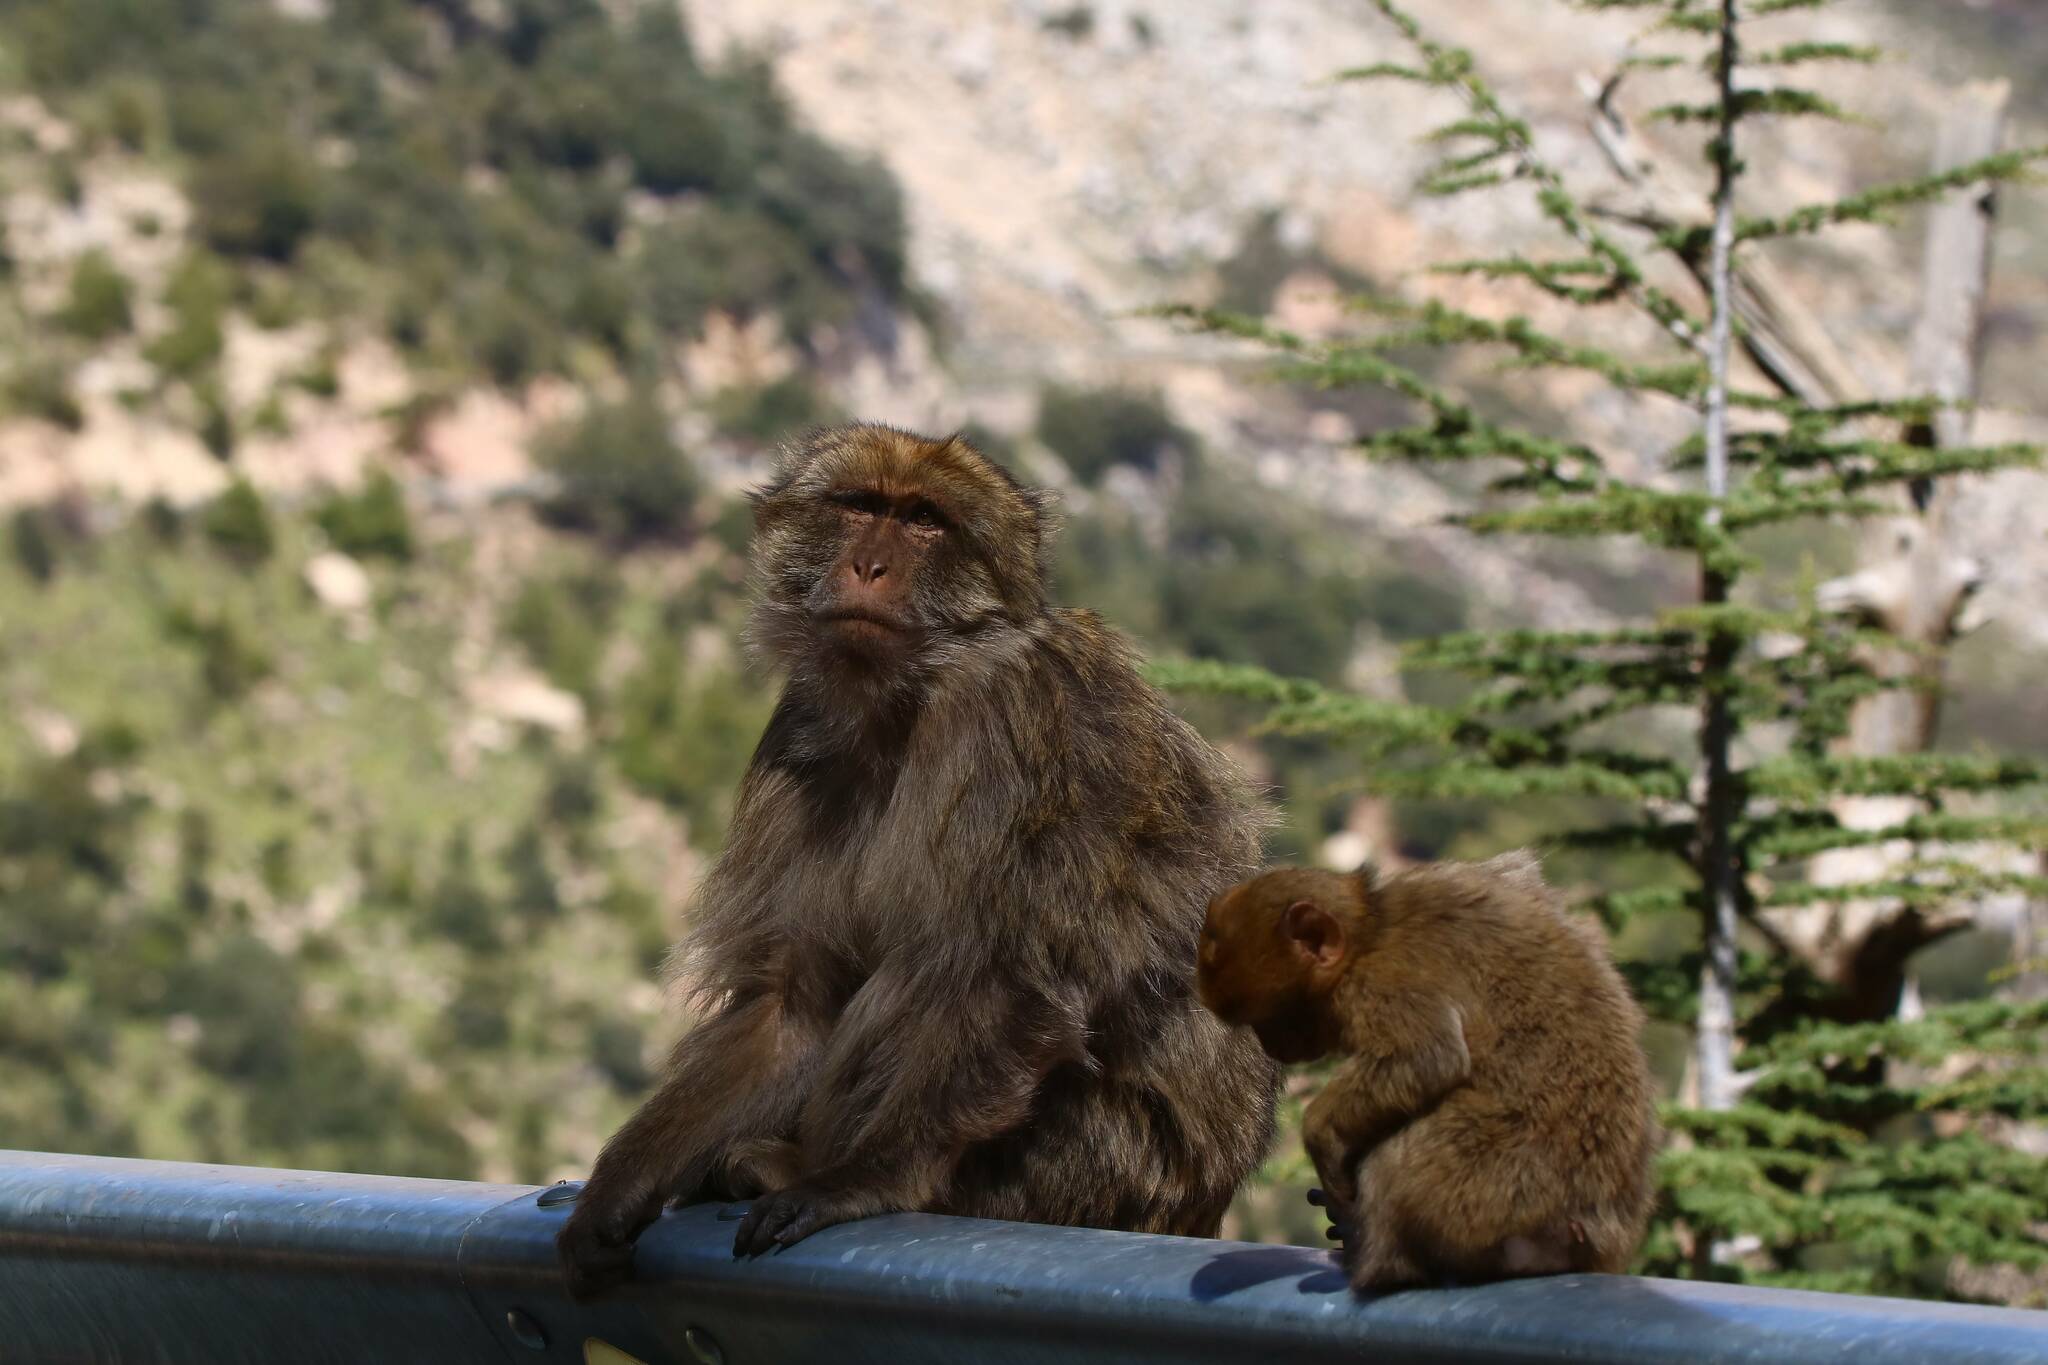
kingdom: Animalia
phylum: Chordata
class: Mammalia
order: Primates
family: Cercopithecidae
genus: Macaca
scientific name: Macaca sylvanus
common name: Barbary macaque
